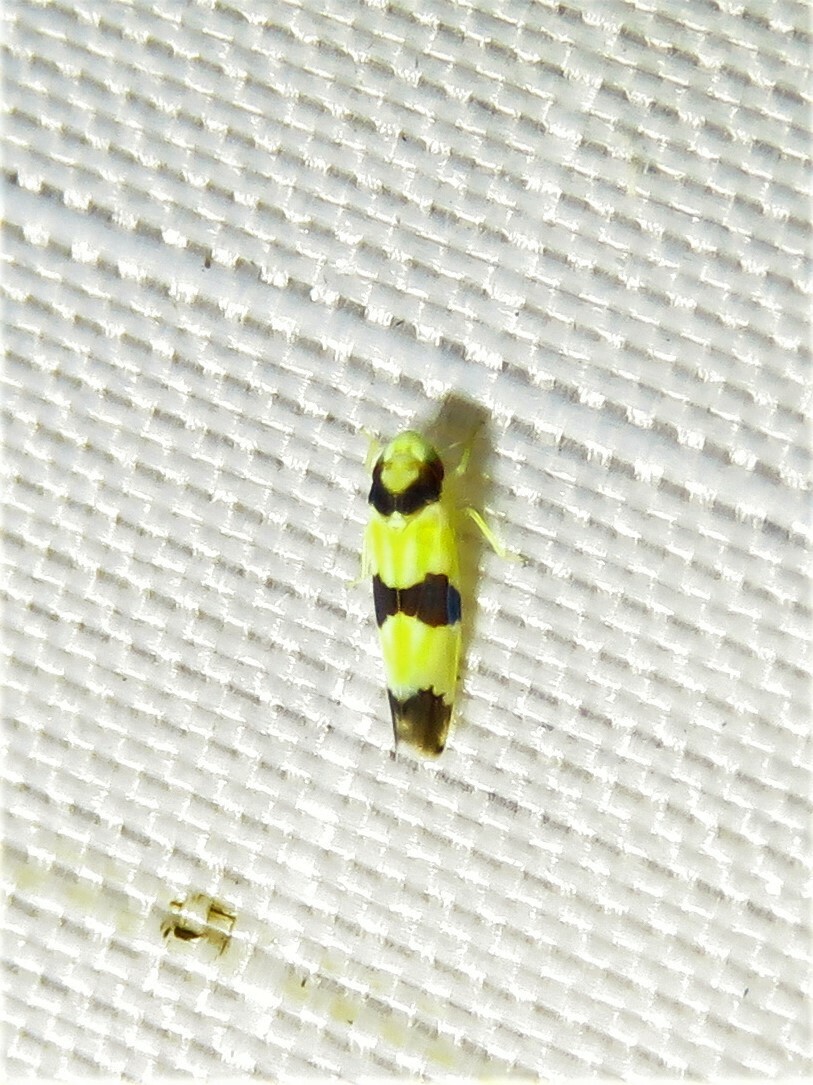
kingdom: Animalia
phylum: Arthropoda
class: Insecta
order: Hemiptera
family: Cicadellidae
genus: Erythroneura
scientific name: Erythroneura calycula
